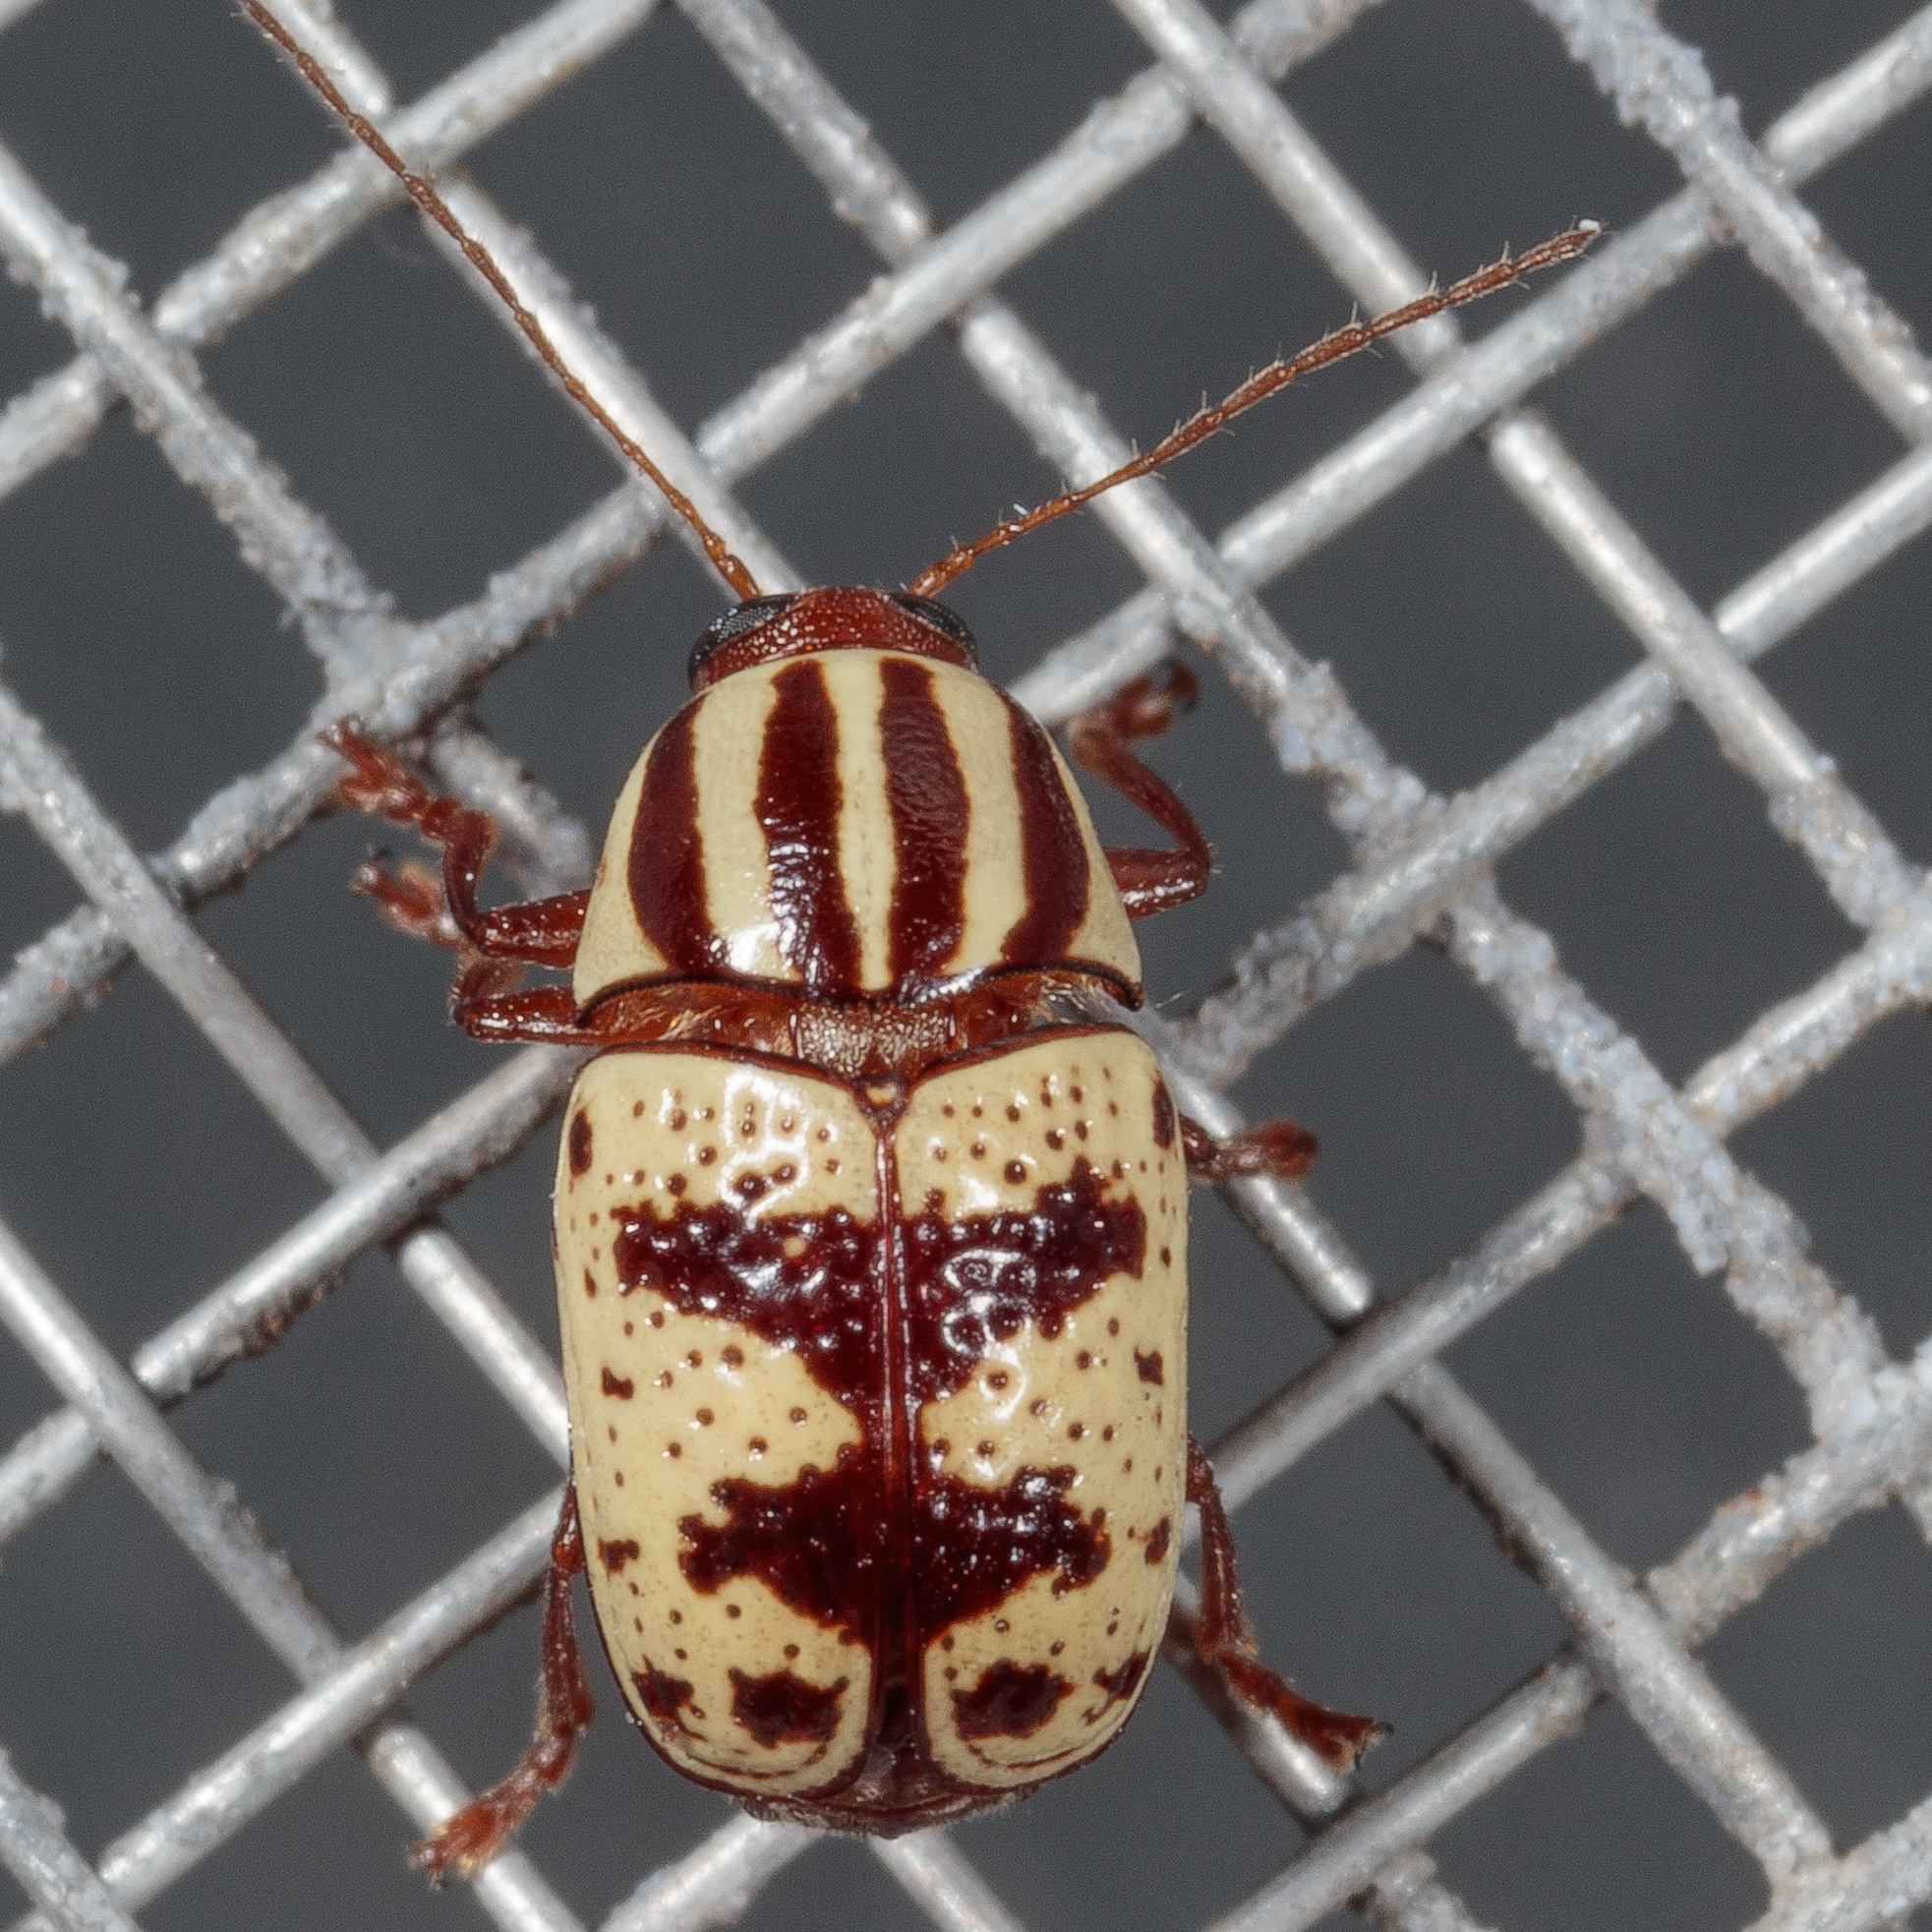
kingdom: Animalia
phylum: Arthropoda
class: Insecta
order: Coleoptera
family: Chrysomelidae
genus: Cryptocephalus
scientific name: Cryptocephalus leucomelas
